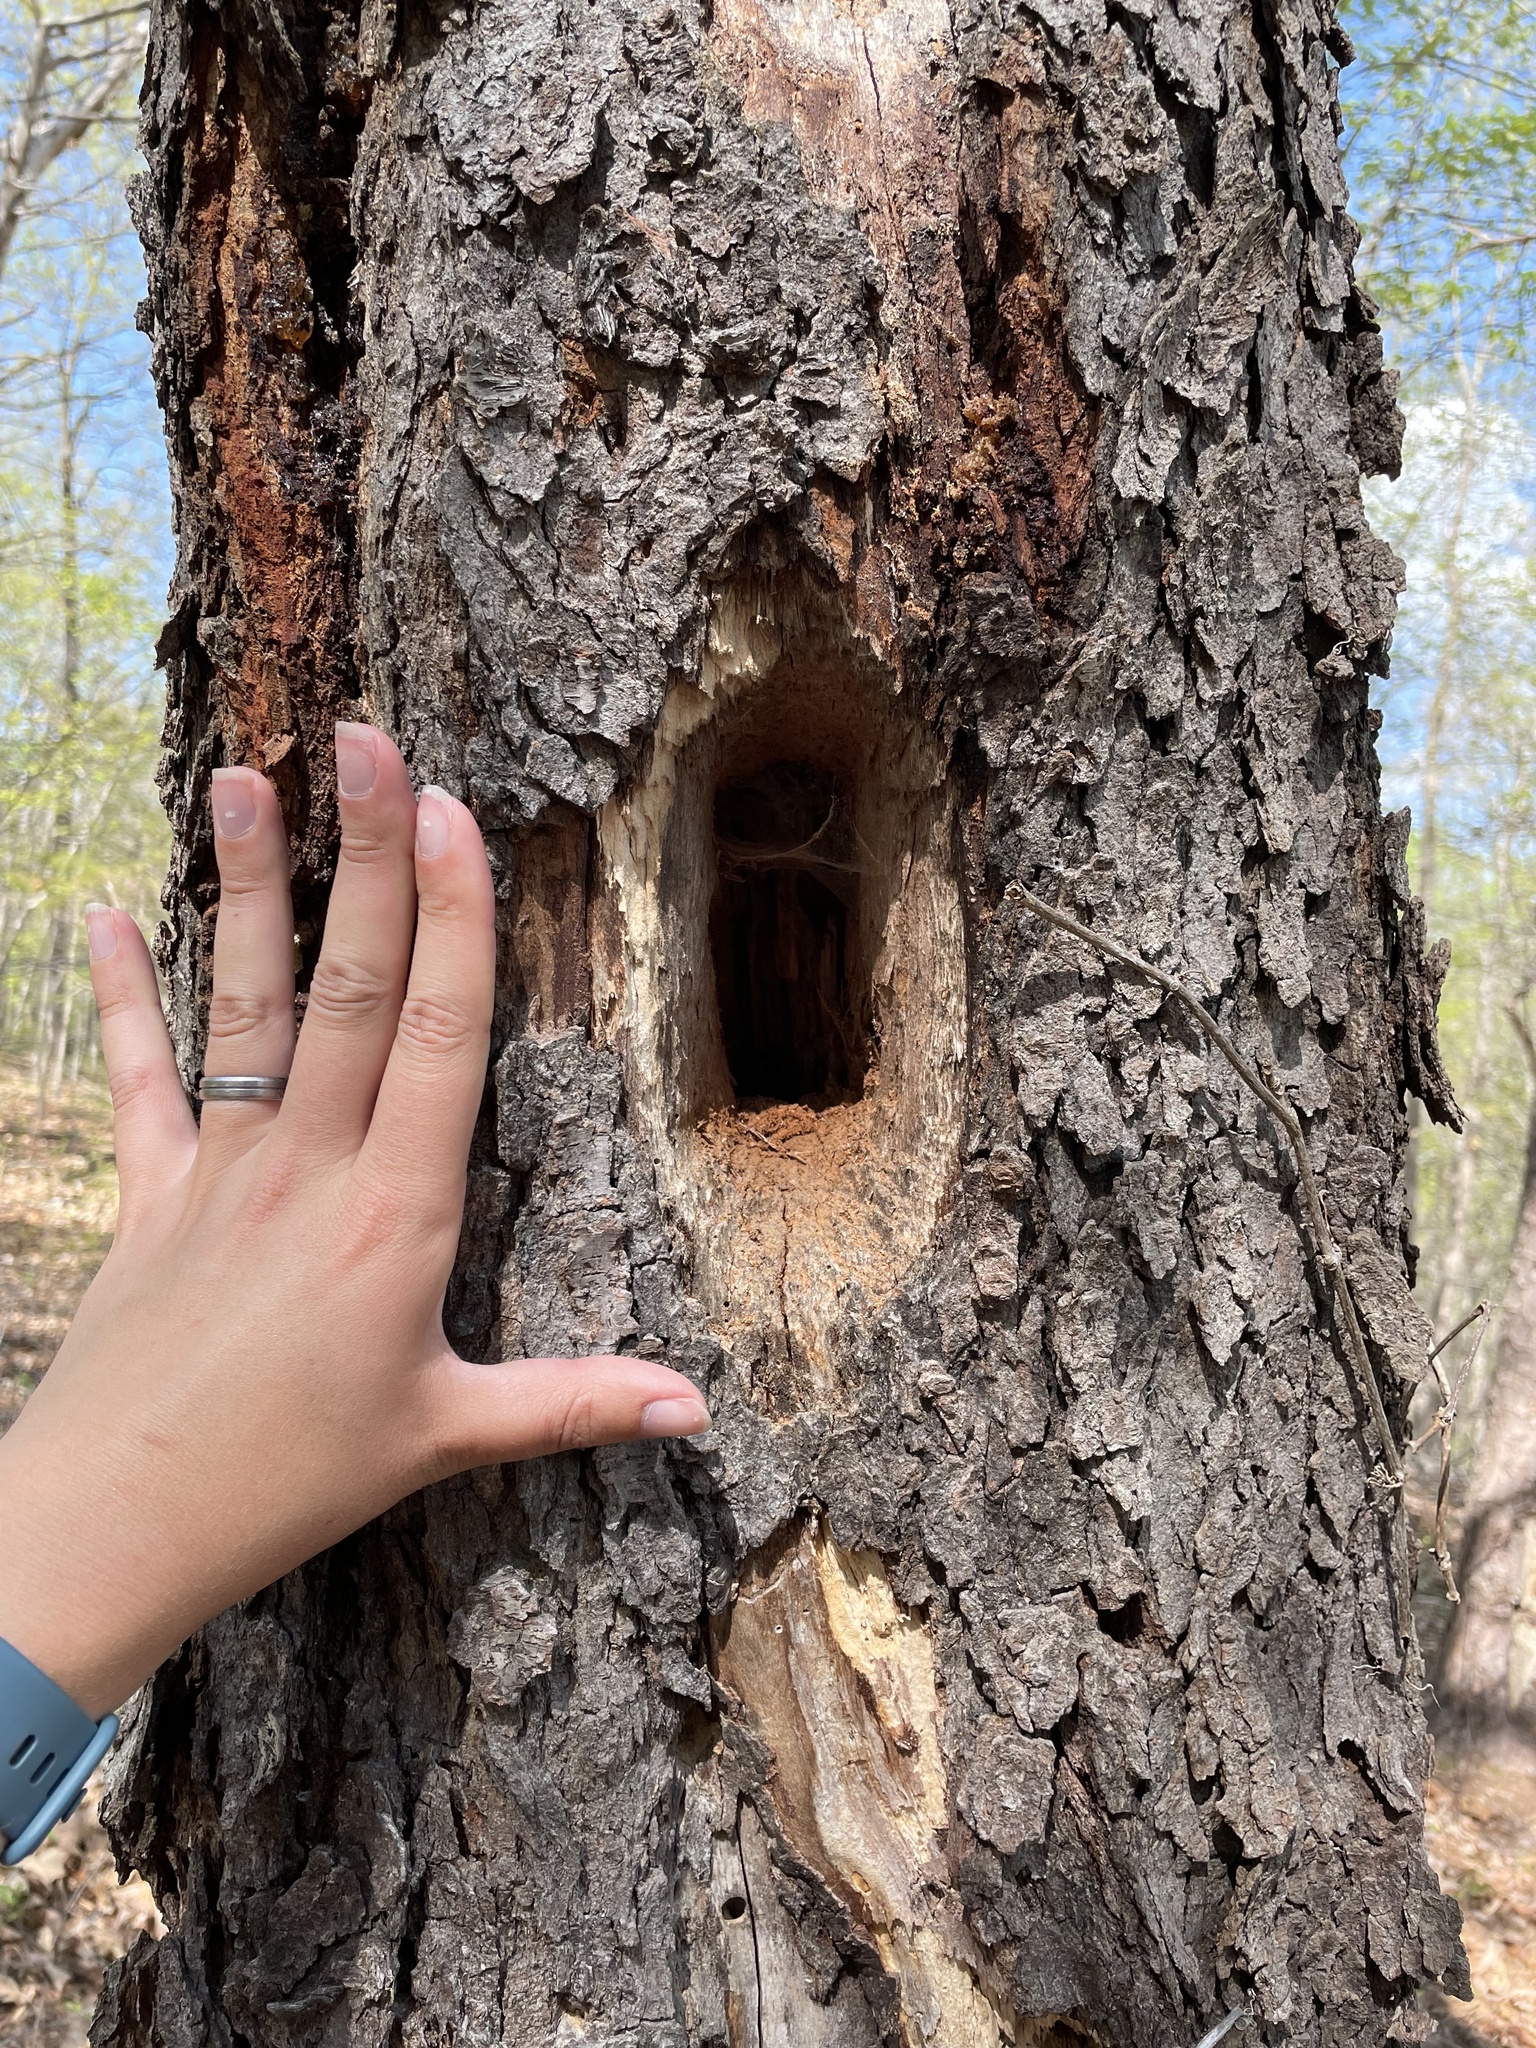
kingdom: Animalia
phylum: Chordata
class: Aves
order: Piciformes
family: Picidae
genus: Dryocopus
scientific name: Dryocopus pileatus
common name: Pileated woodpecker
